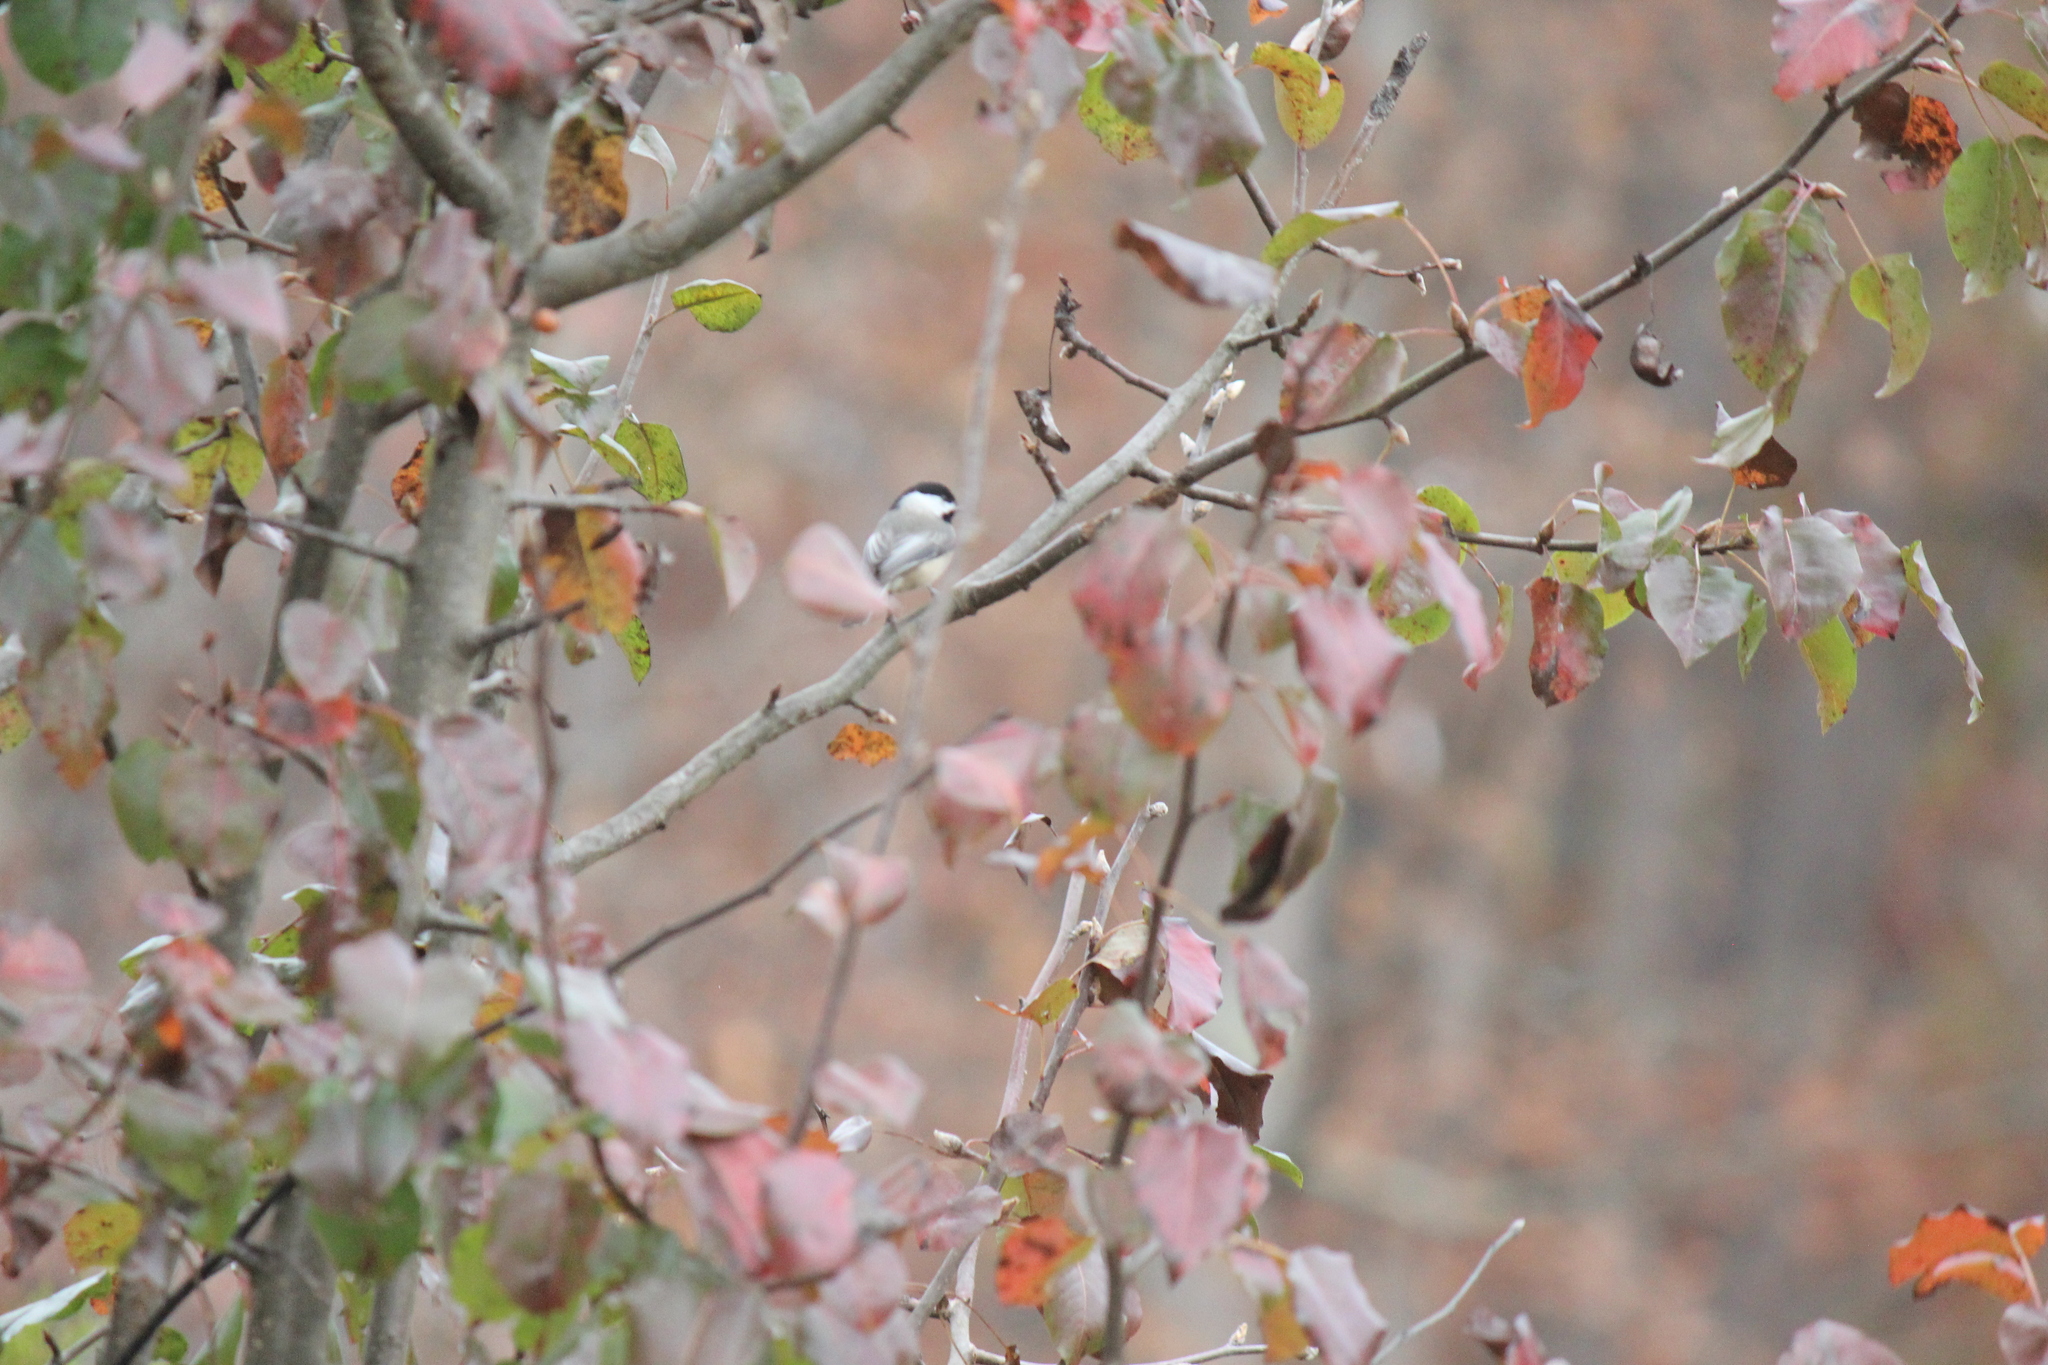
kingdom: Animalia
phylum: Chordata
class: Aves
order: Passeriformes
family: Paridae
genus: Poecile
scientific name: Poecile carolinensis
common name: Carolina chickadee
